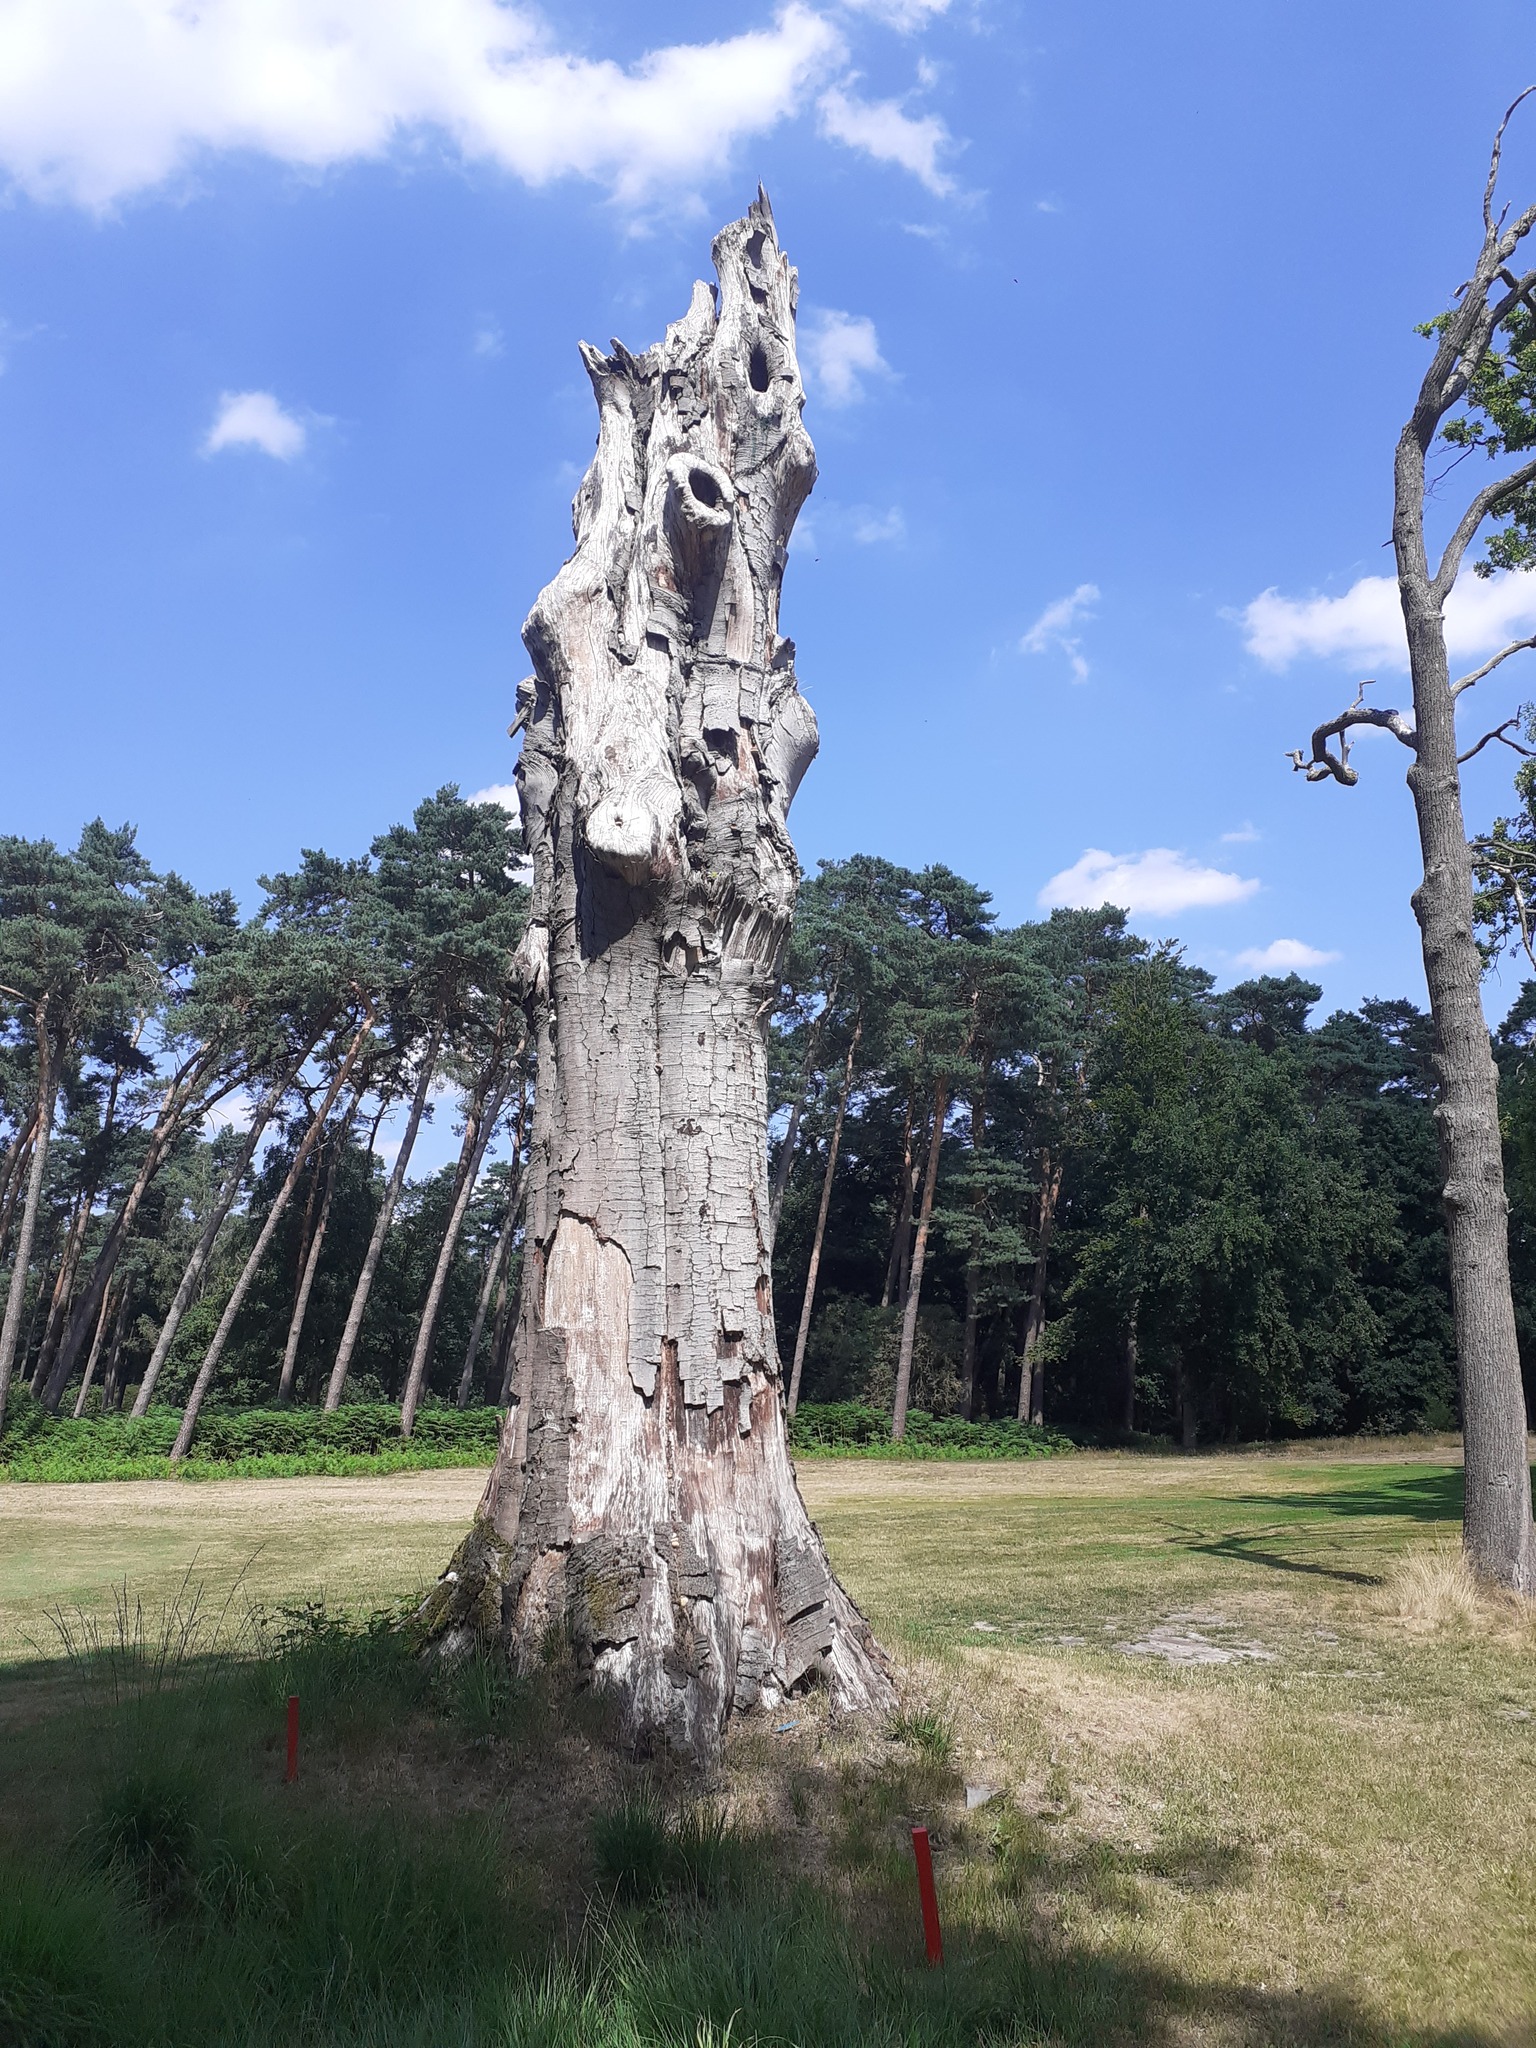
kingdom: Animalia
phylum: Arthropoda
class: Insecta
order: Hymenoptera
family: Vespidae
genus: Vespa
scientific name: Vespa crabro
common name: Hornet
